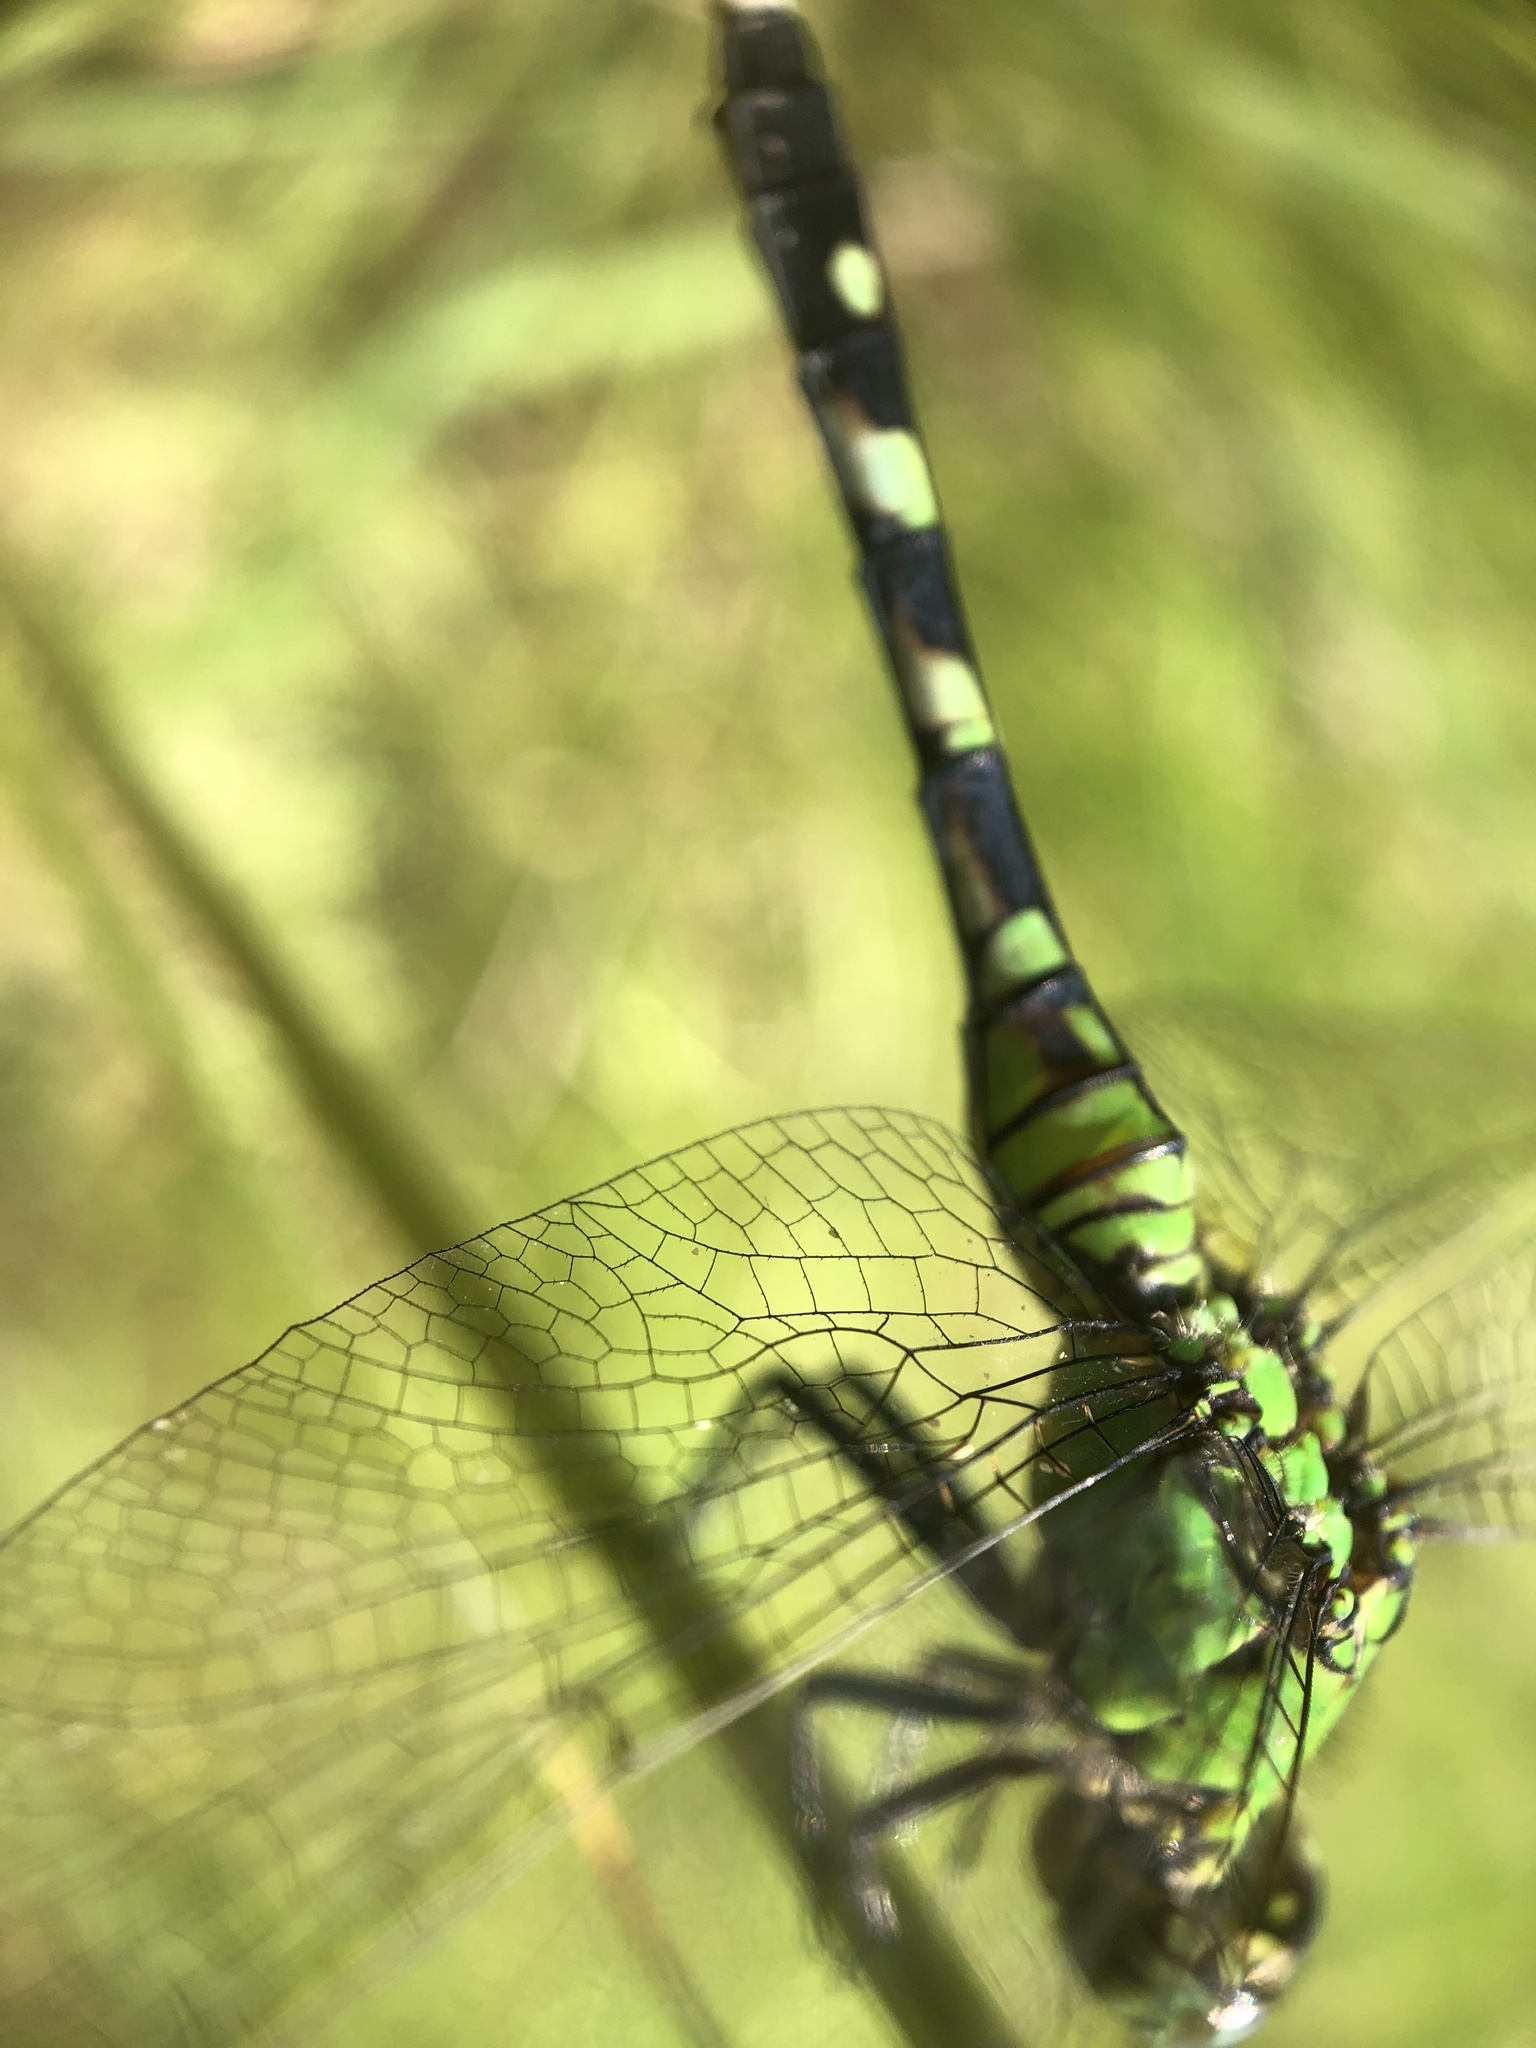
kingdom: Animalia
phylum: Arthropoda
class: Insecta
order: Odonata
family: Libellulidae
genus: Erythemis
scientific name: Erythemis simplicicollis
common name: Eastern pondhawk
